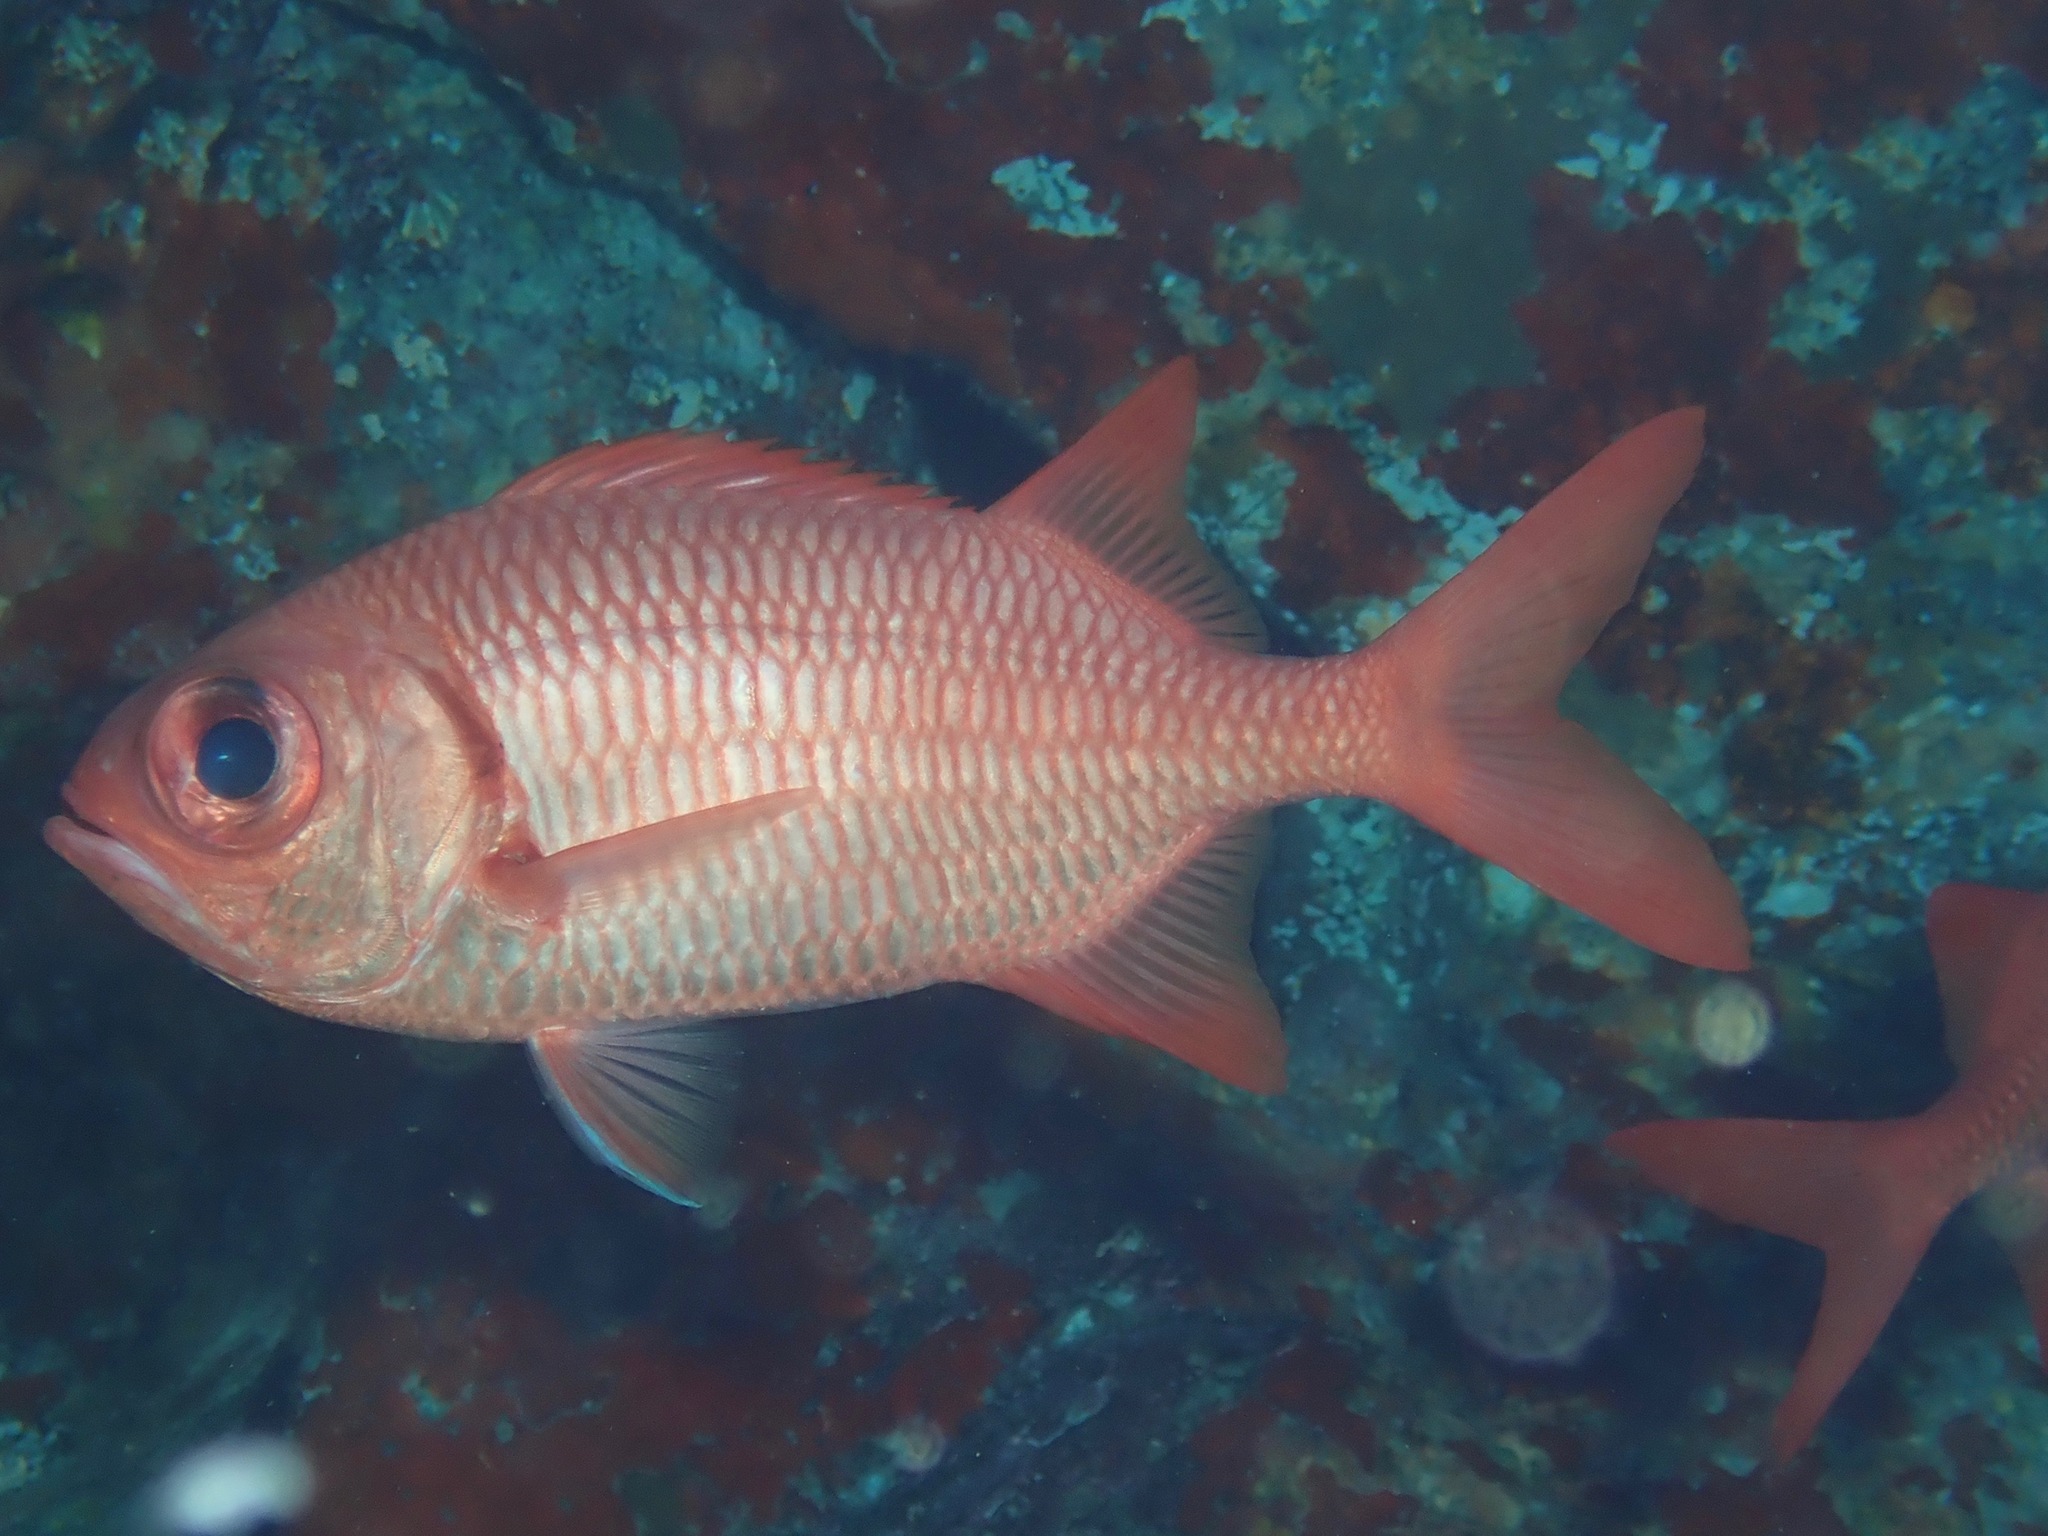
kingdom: Animalia
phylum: Chordata
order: Beryciformes
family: Holocentridae
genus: Myripristis
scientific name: Myripristis amaena
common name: Brick soldierfish
